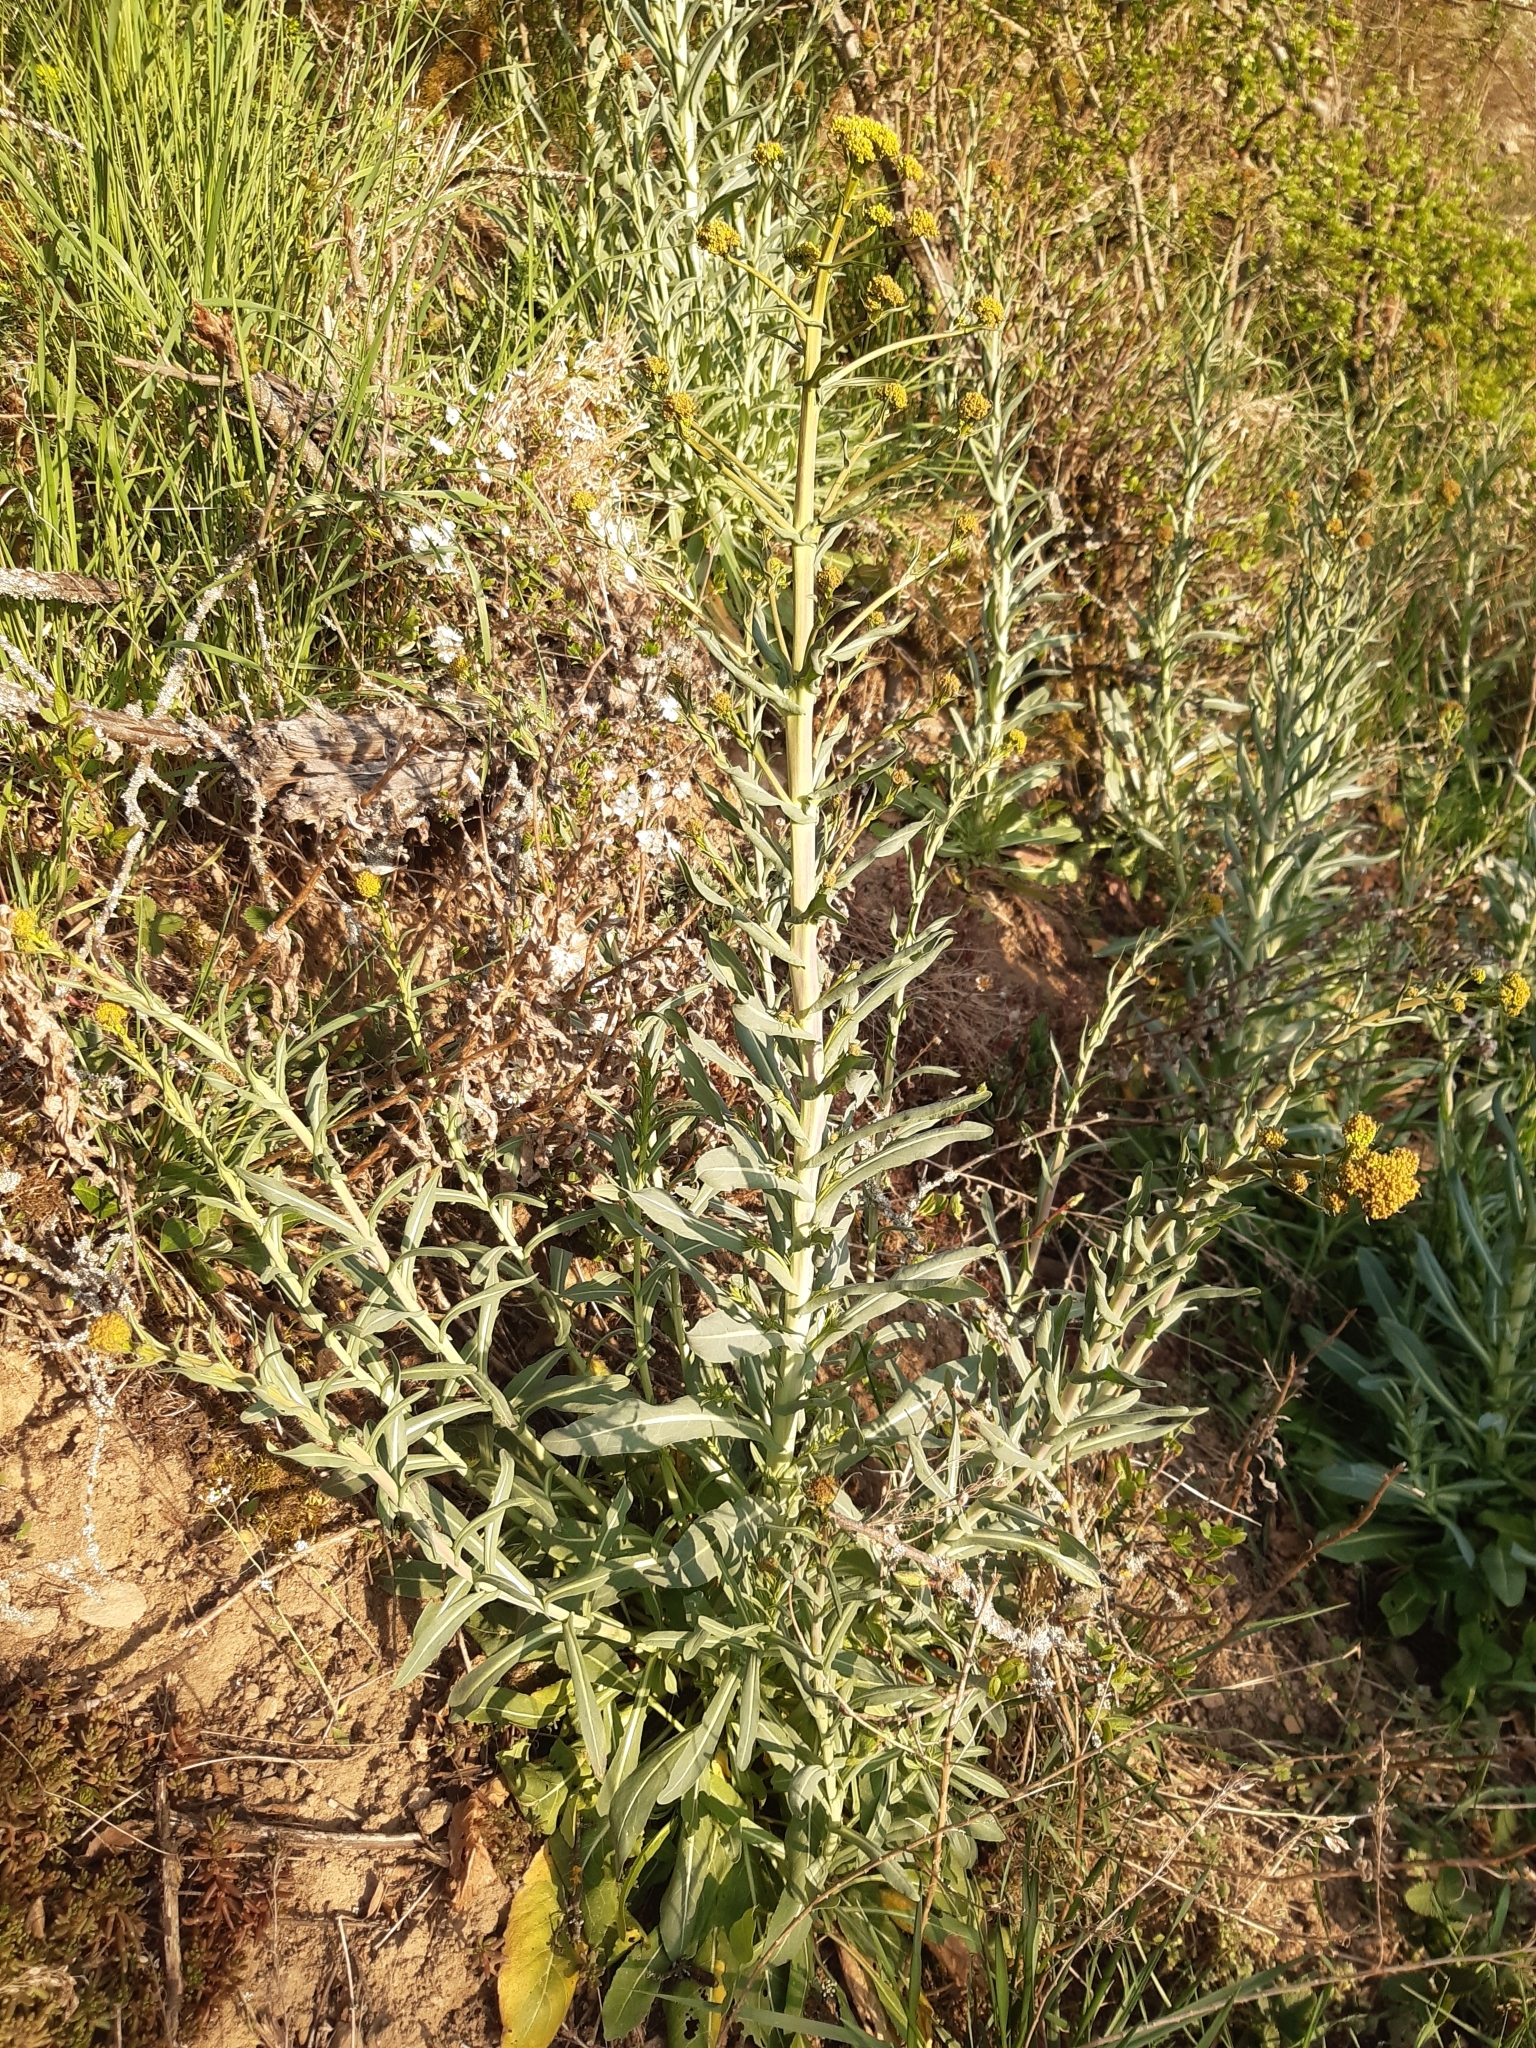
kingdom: Plantae
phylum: Tracheophyta
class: Magnoliopsida
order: Brassicales
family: Brassicaceae
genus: Isatis
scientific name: Isatis tinctoria
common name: Woad
